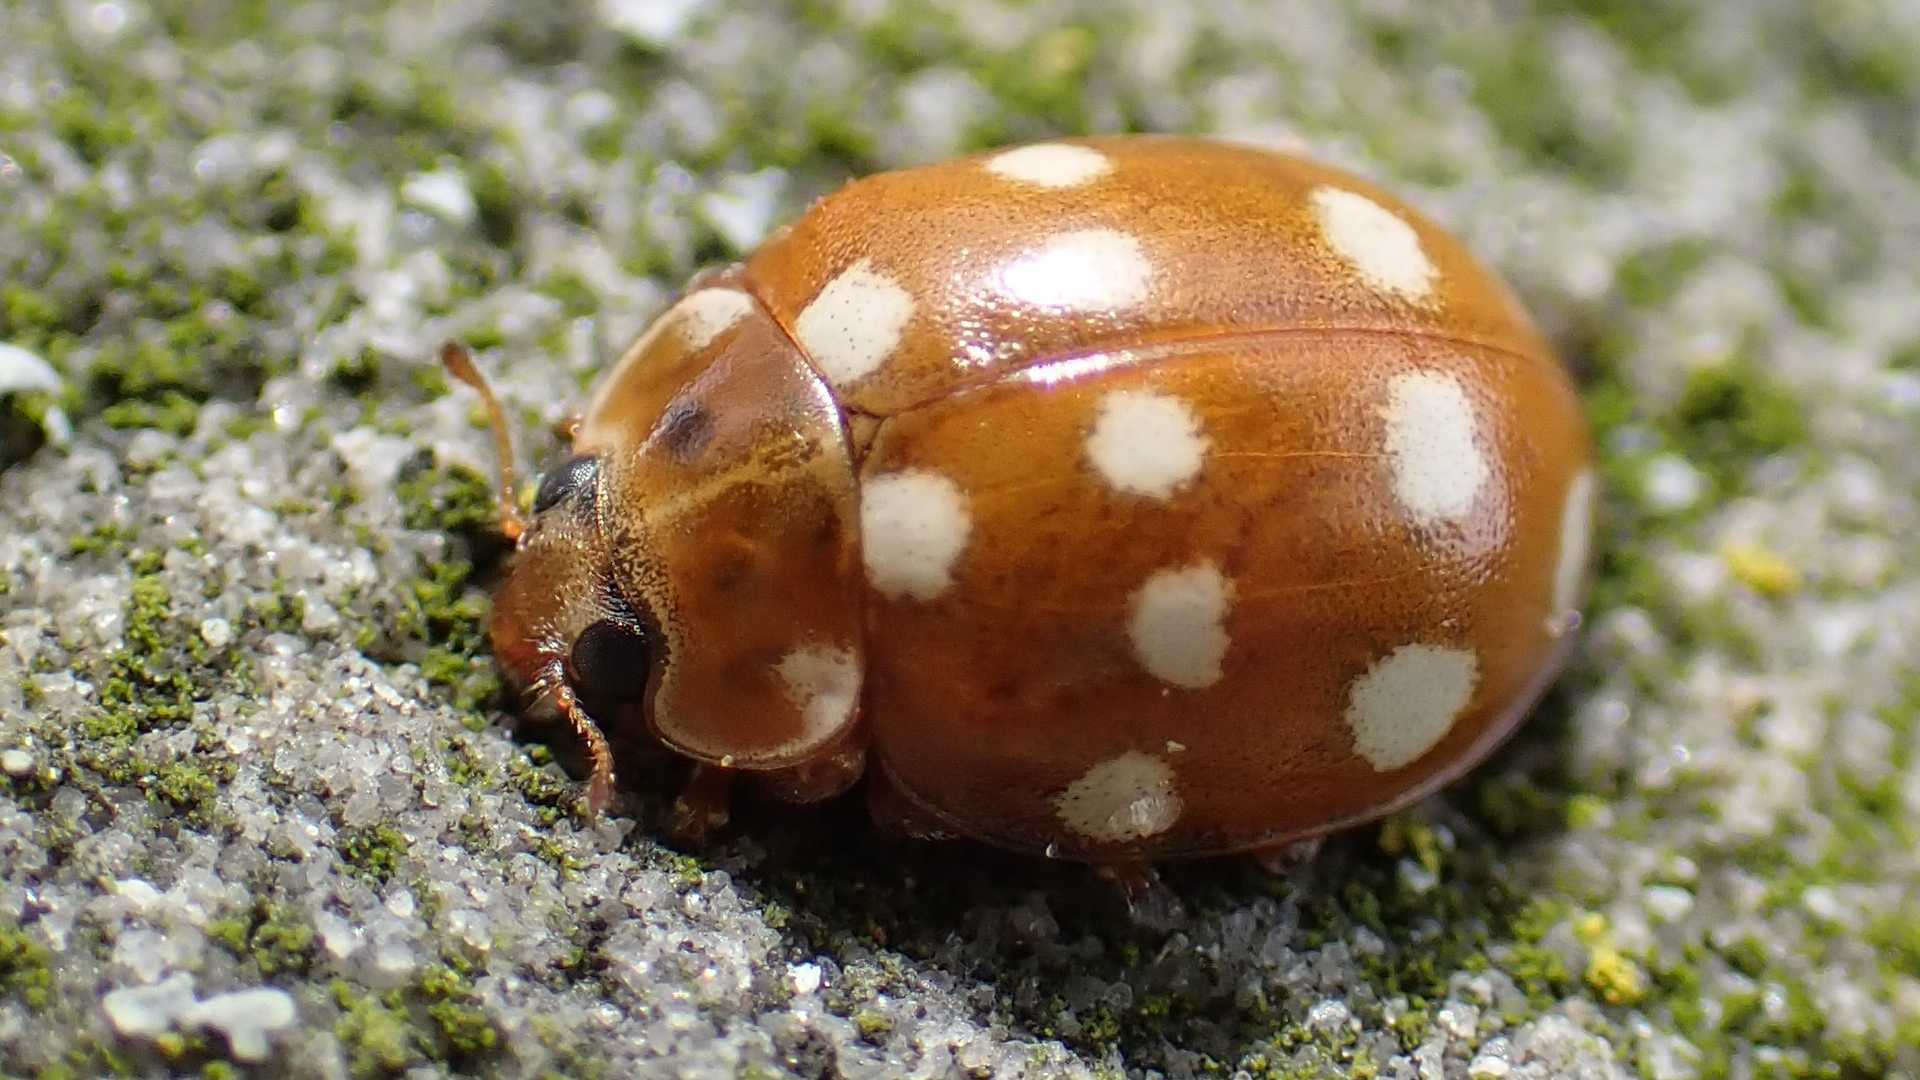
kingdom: Animalia
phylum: Arthropoda
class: Insecta
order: Coleoptera
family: Coccinellidae
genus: Calvia
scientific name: Calvia quatuordecimguttata
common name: Cream-spot ladybird
